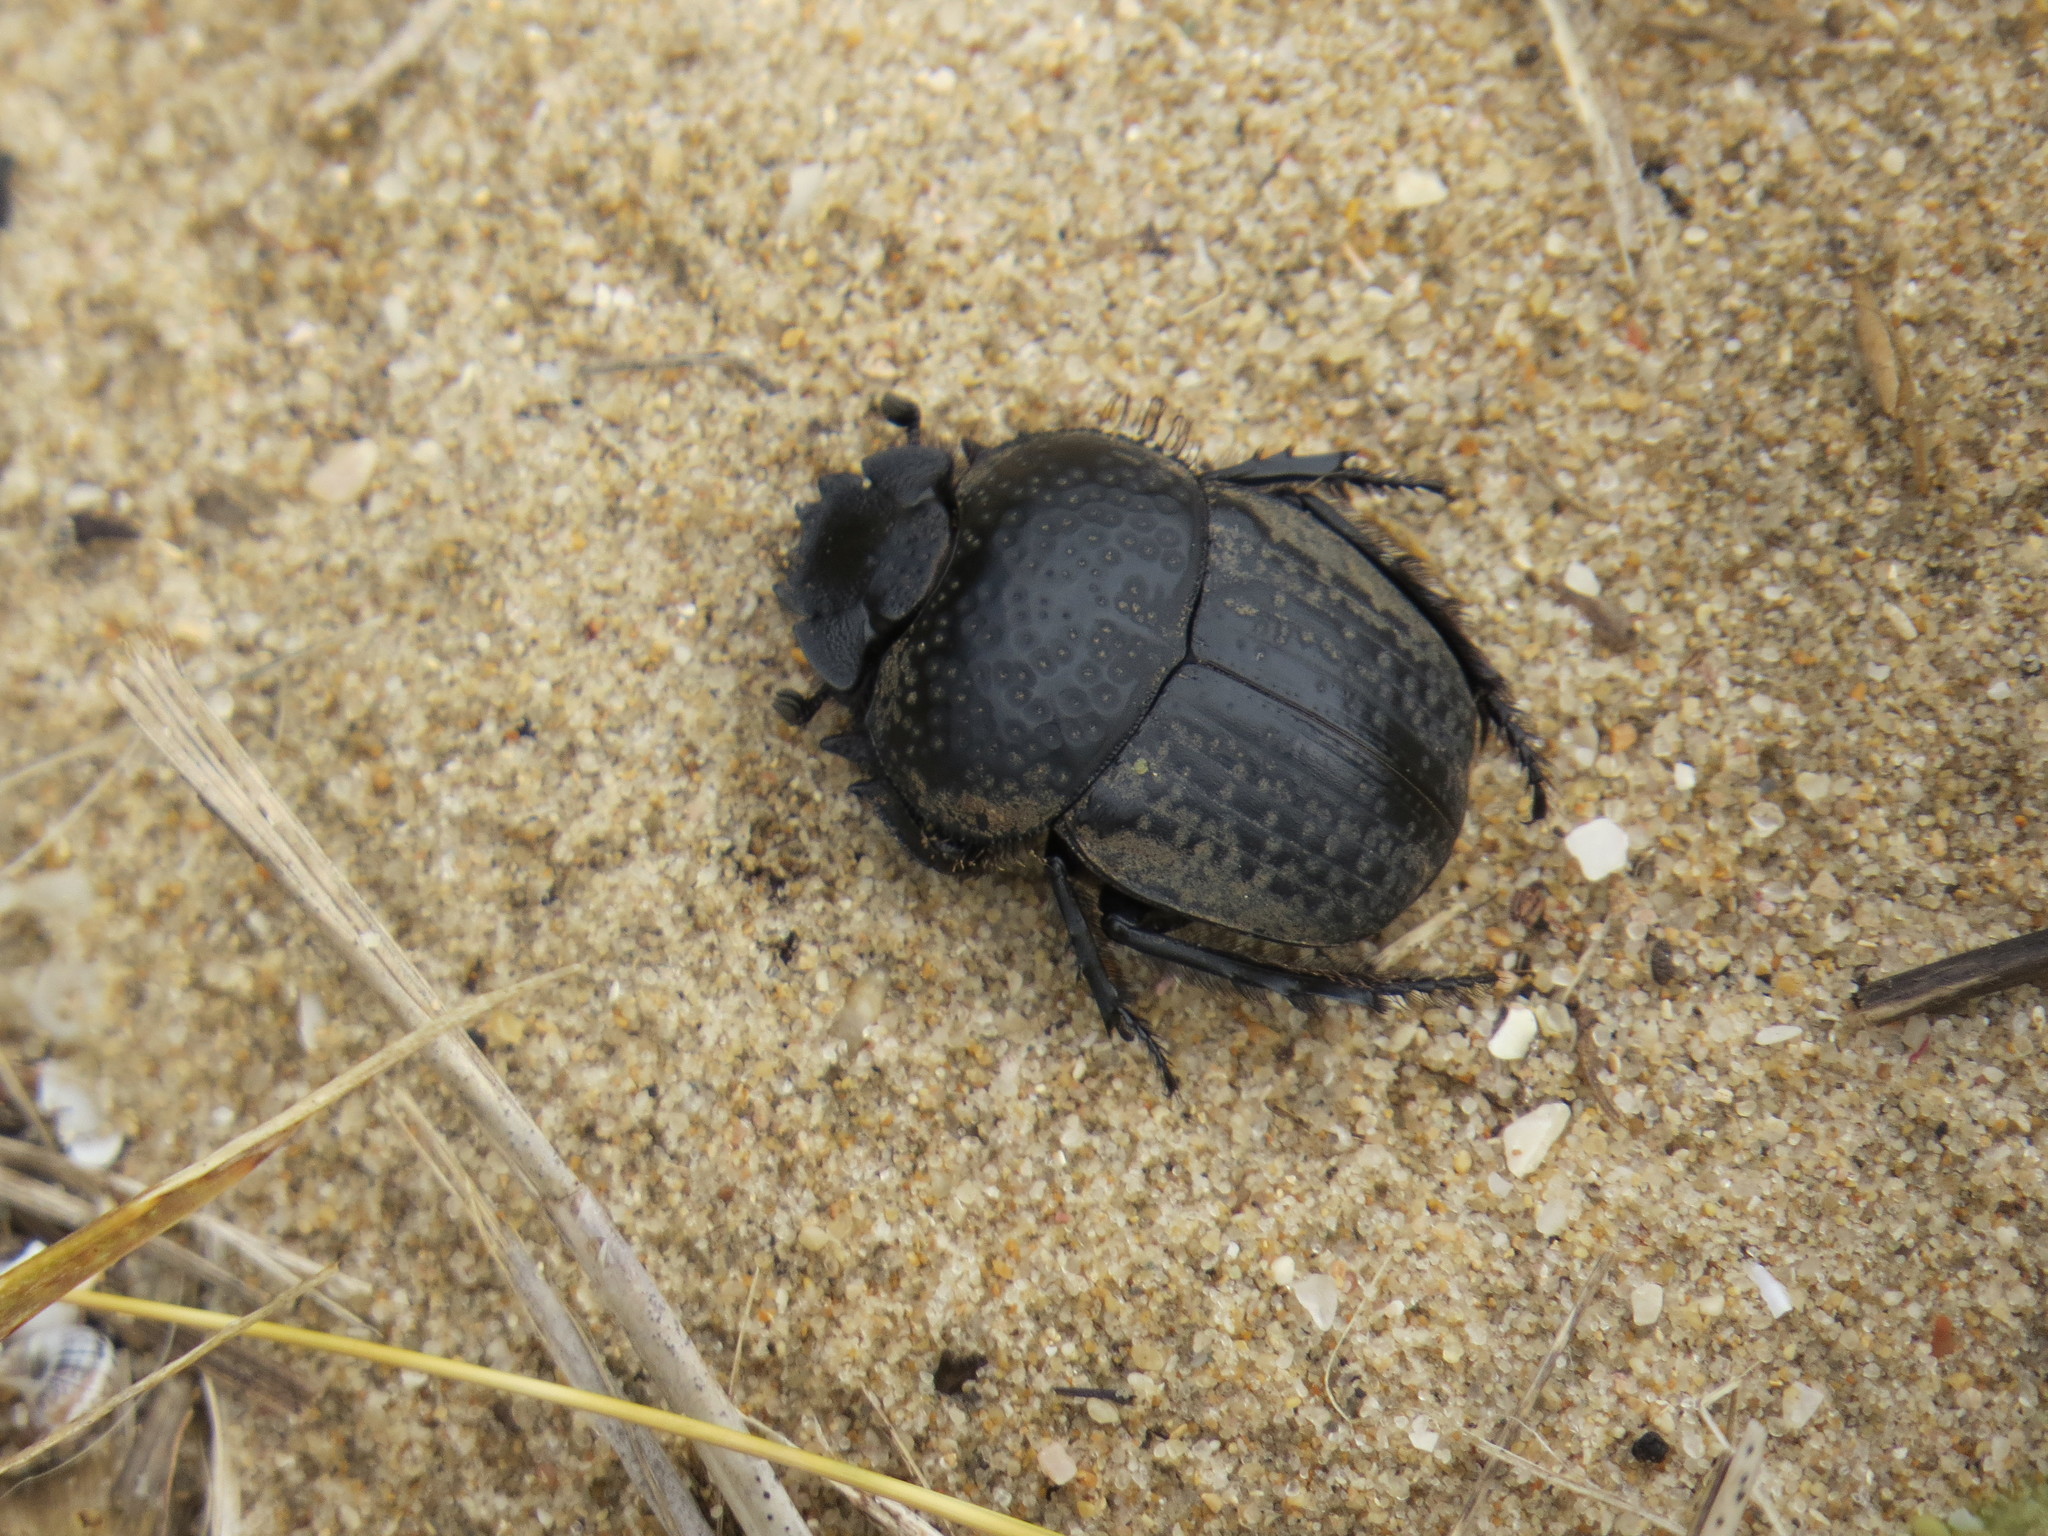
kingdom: Animalia
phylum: Arthropoda
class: Insecta
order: Coleoptera
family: Scarabaeidae
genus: Ateuchetus
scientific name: Ateuchetus cicatricosus
